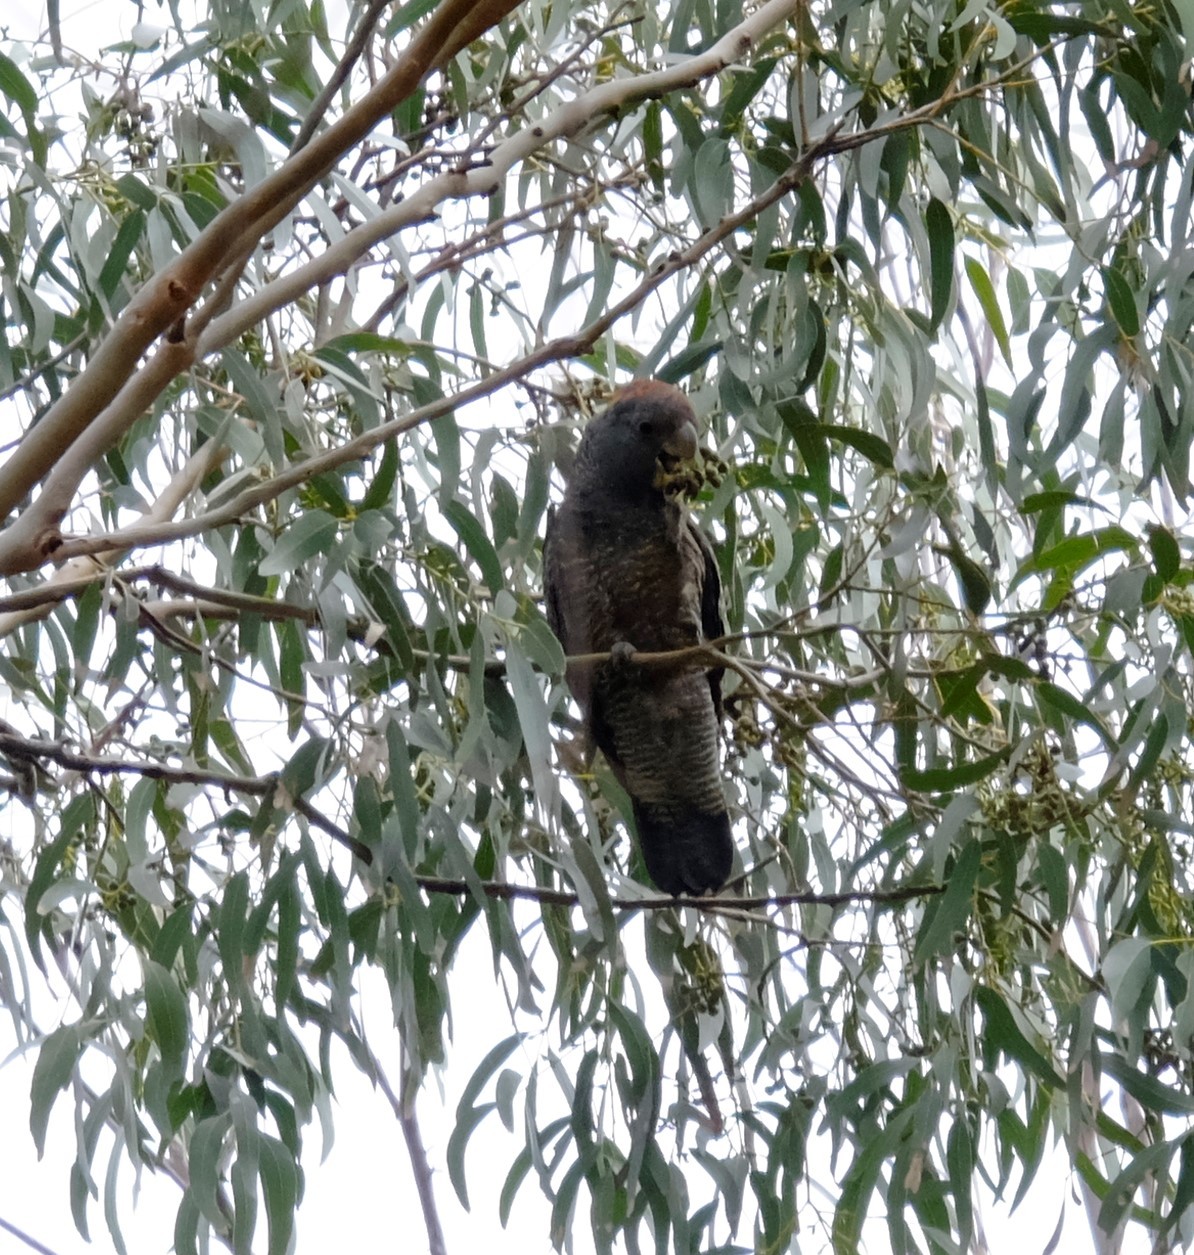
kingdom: Animalia
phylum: Chordata
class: Aves
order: Psittaciformes
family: Psittacidae
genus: Callocephalon
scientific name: Callocephalon fimbriatum
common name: Gang-gang cockatoo
